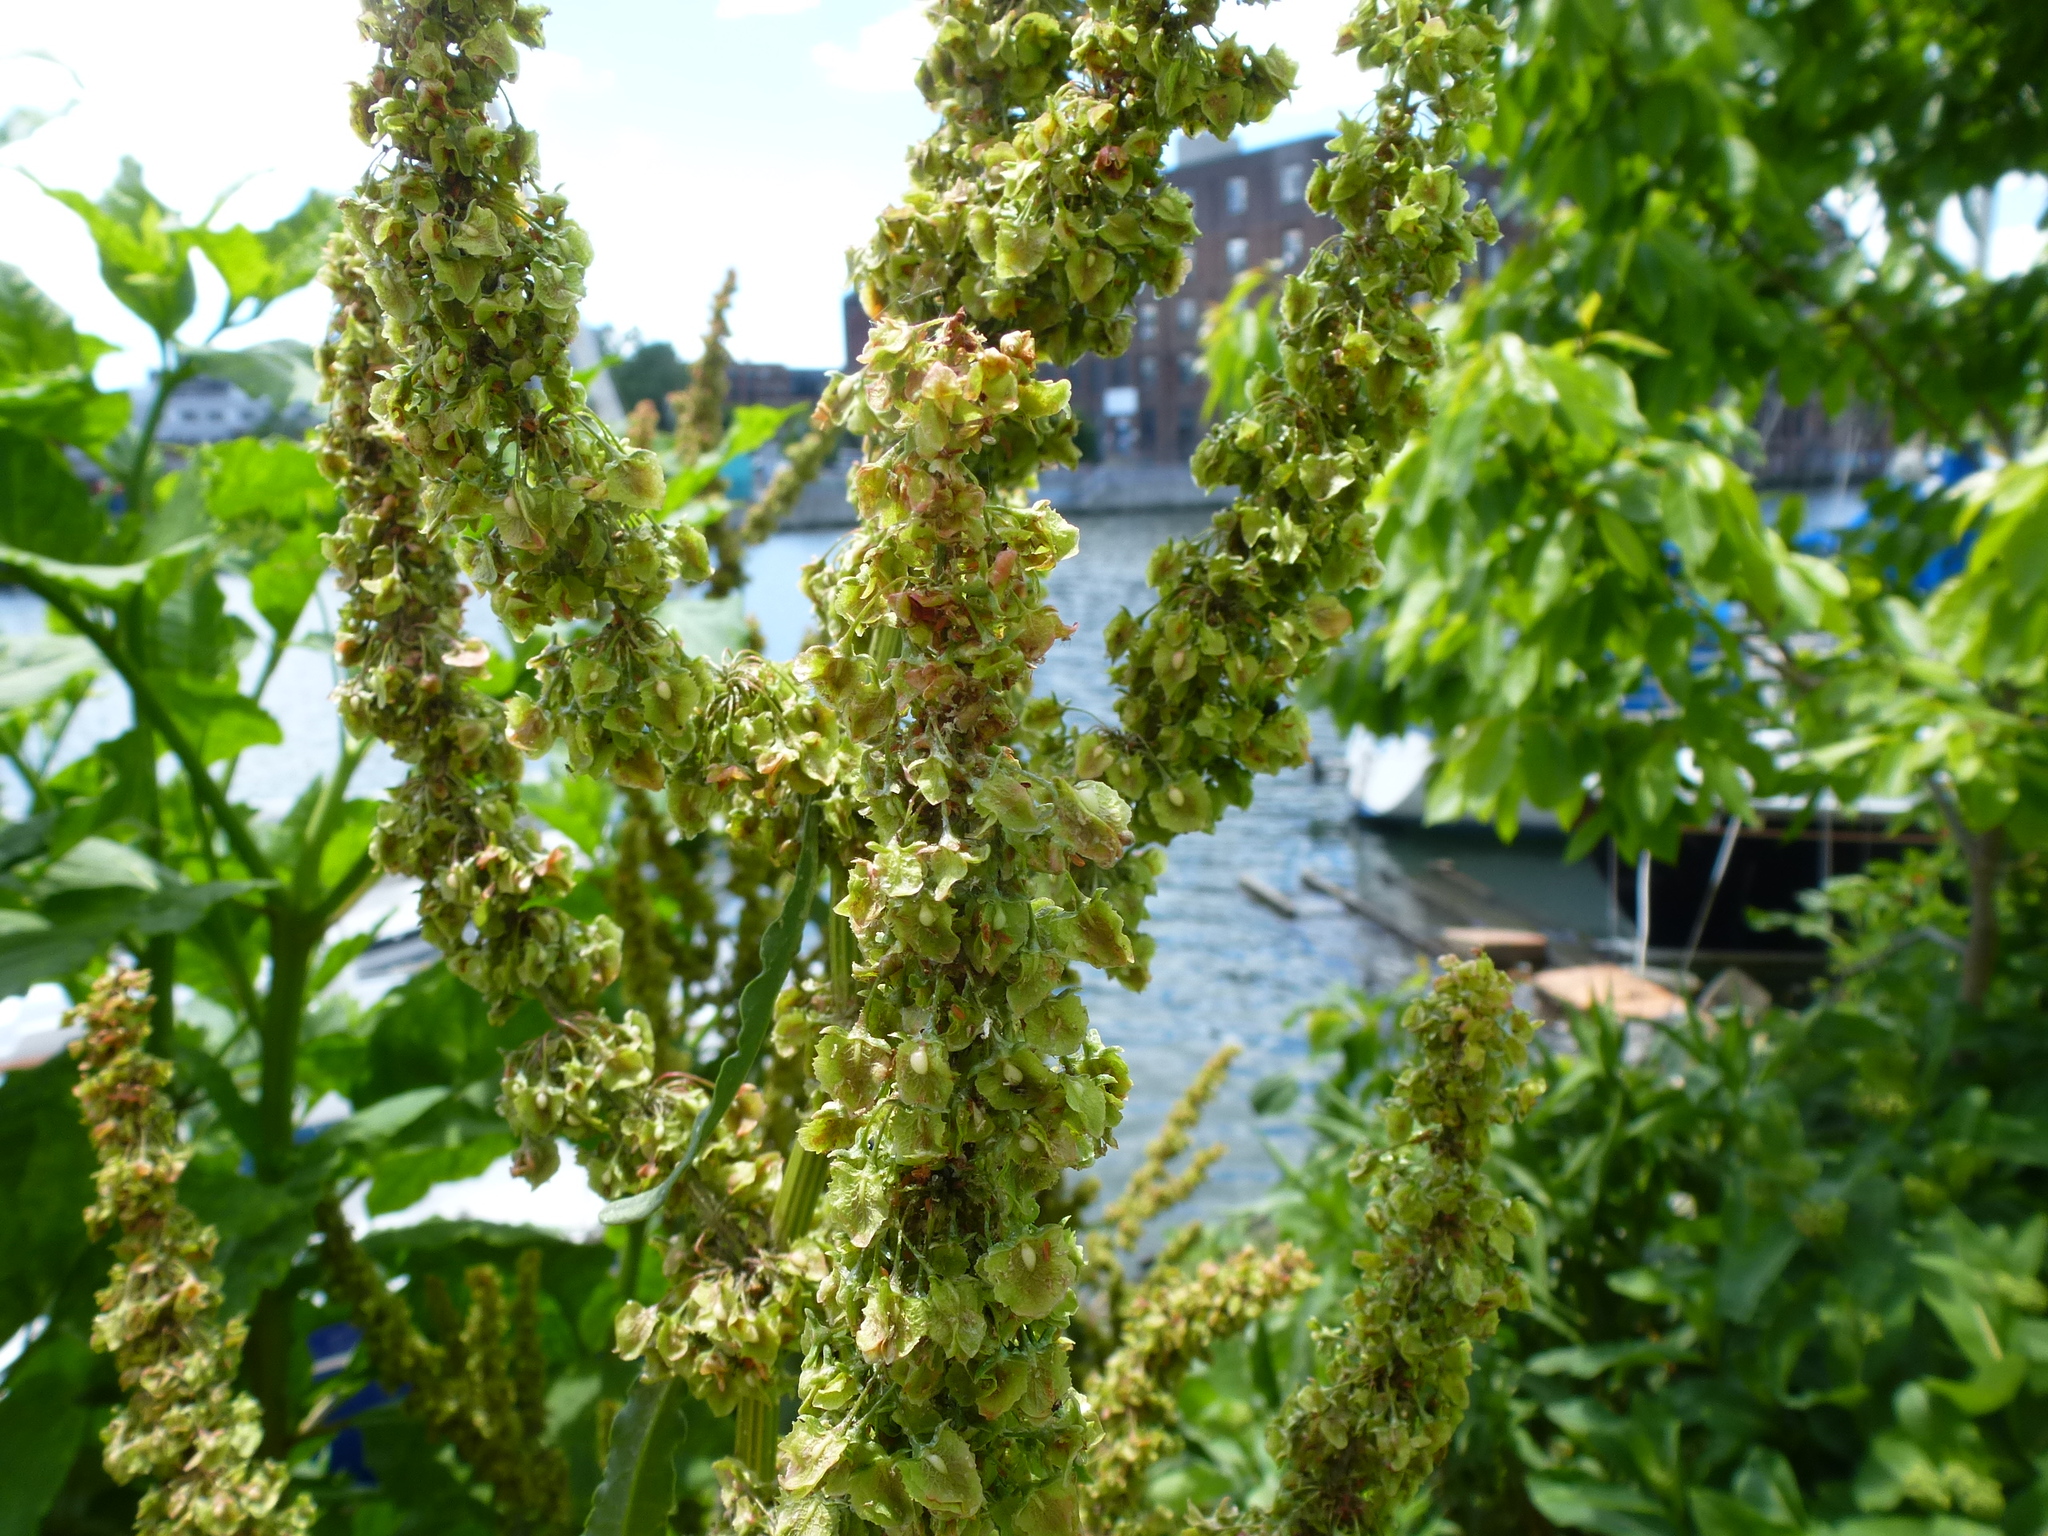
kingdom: Plantae
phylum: Tracheophyta
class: Magnoliopsida
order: Caryophyllales
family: Polygonaceae
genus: Rumex
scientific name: Rumex crispus
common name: Curled dock
